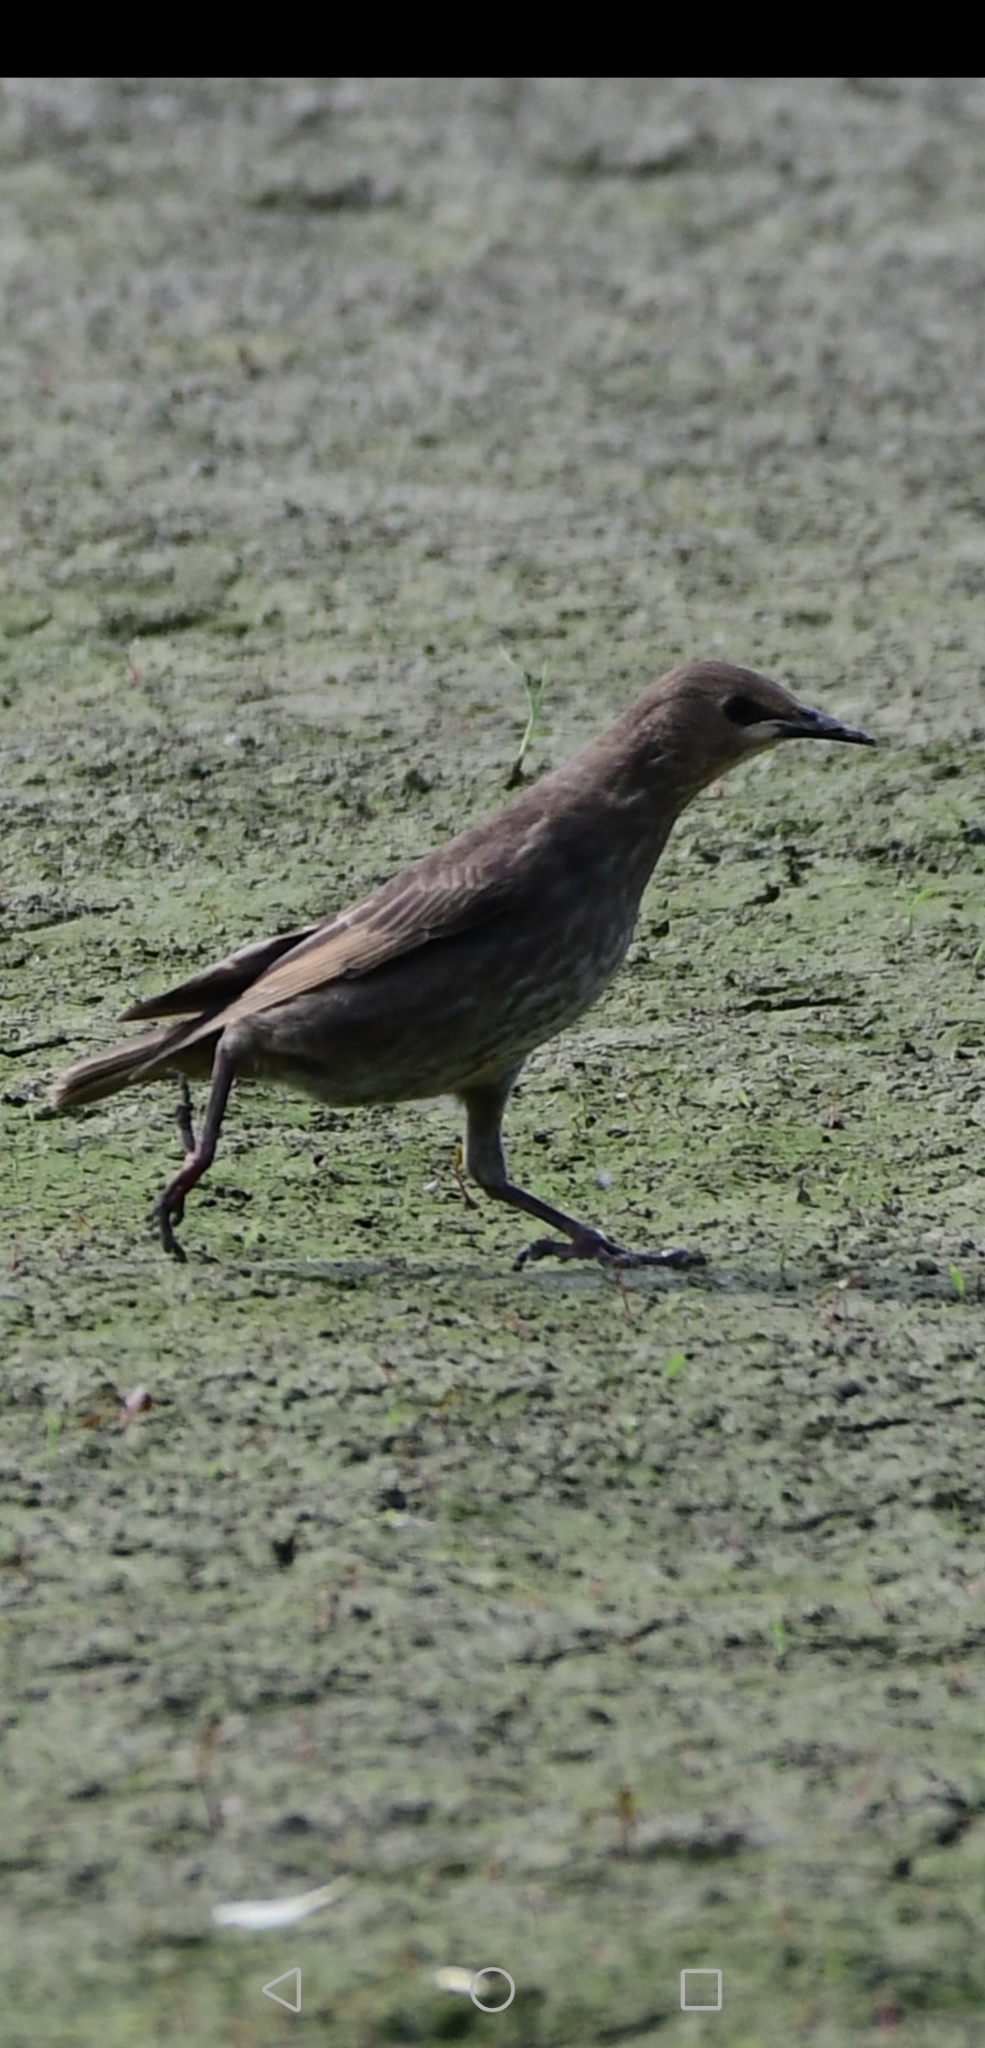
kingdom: Animalia
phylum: Chordata
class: Aves
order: Passeriformes
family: Sturnidae
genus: Sturnus
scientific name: Sturnus vulgaris
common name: Common starling
